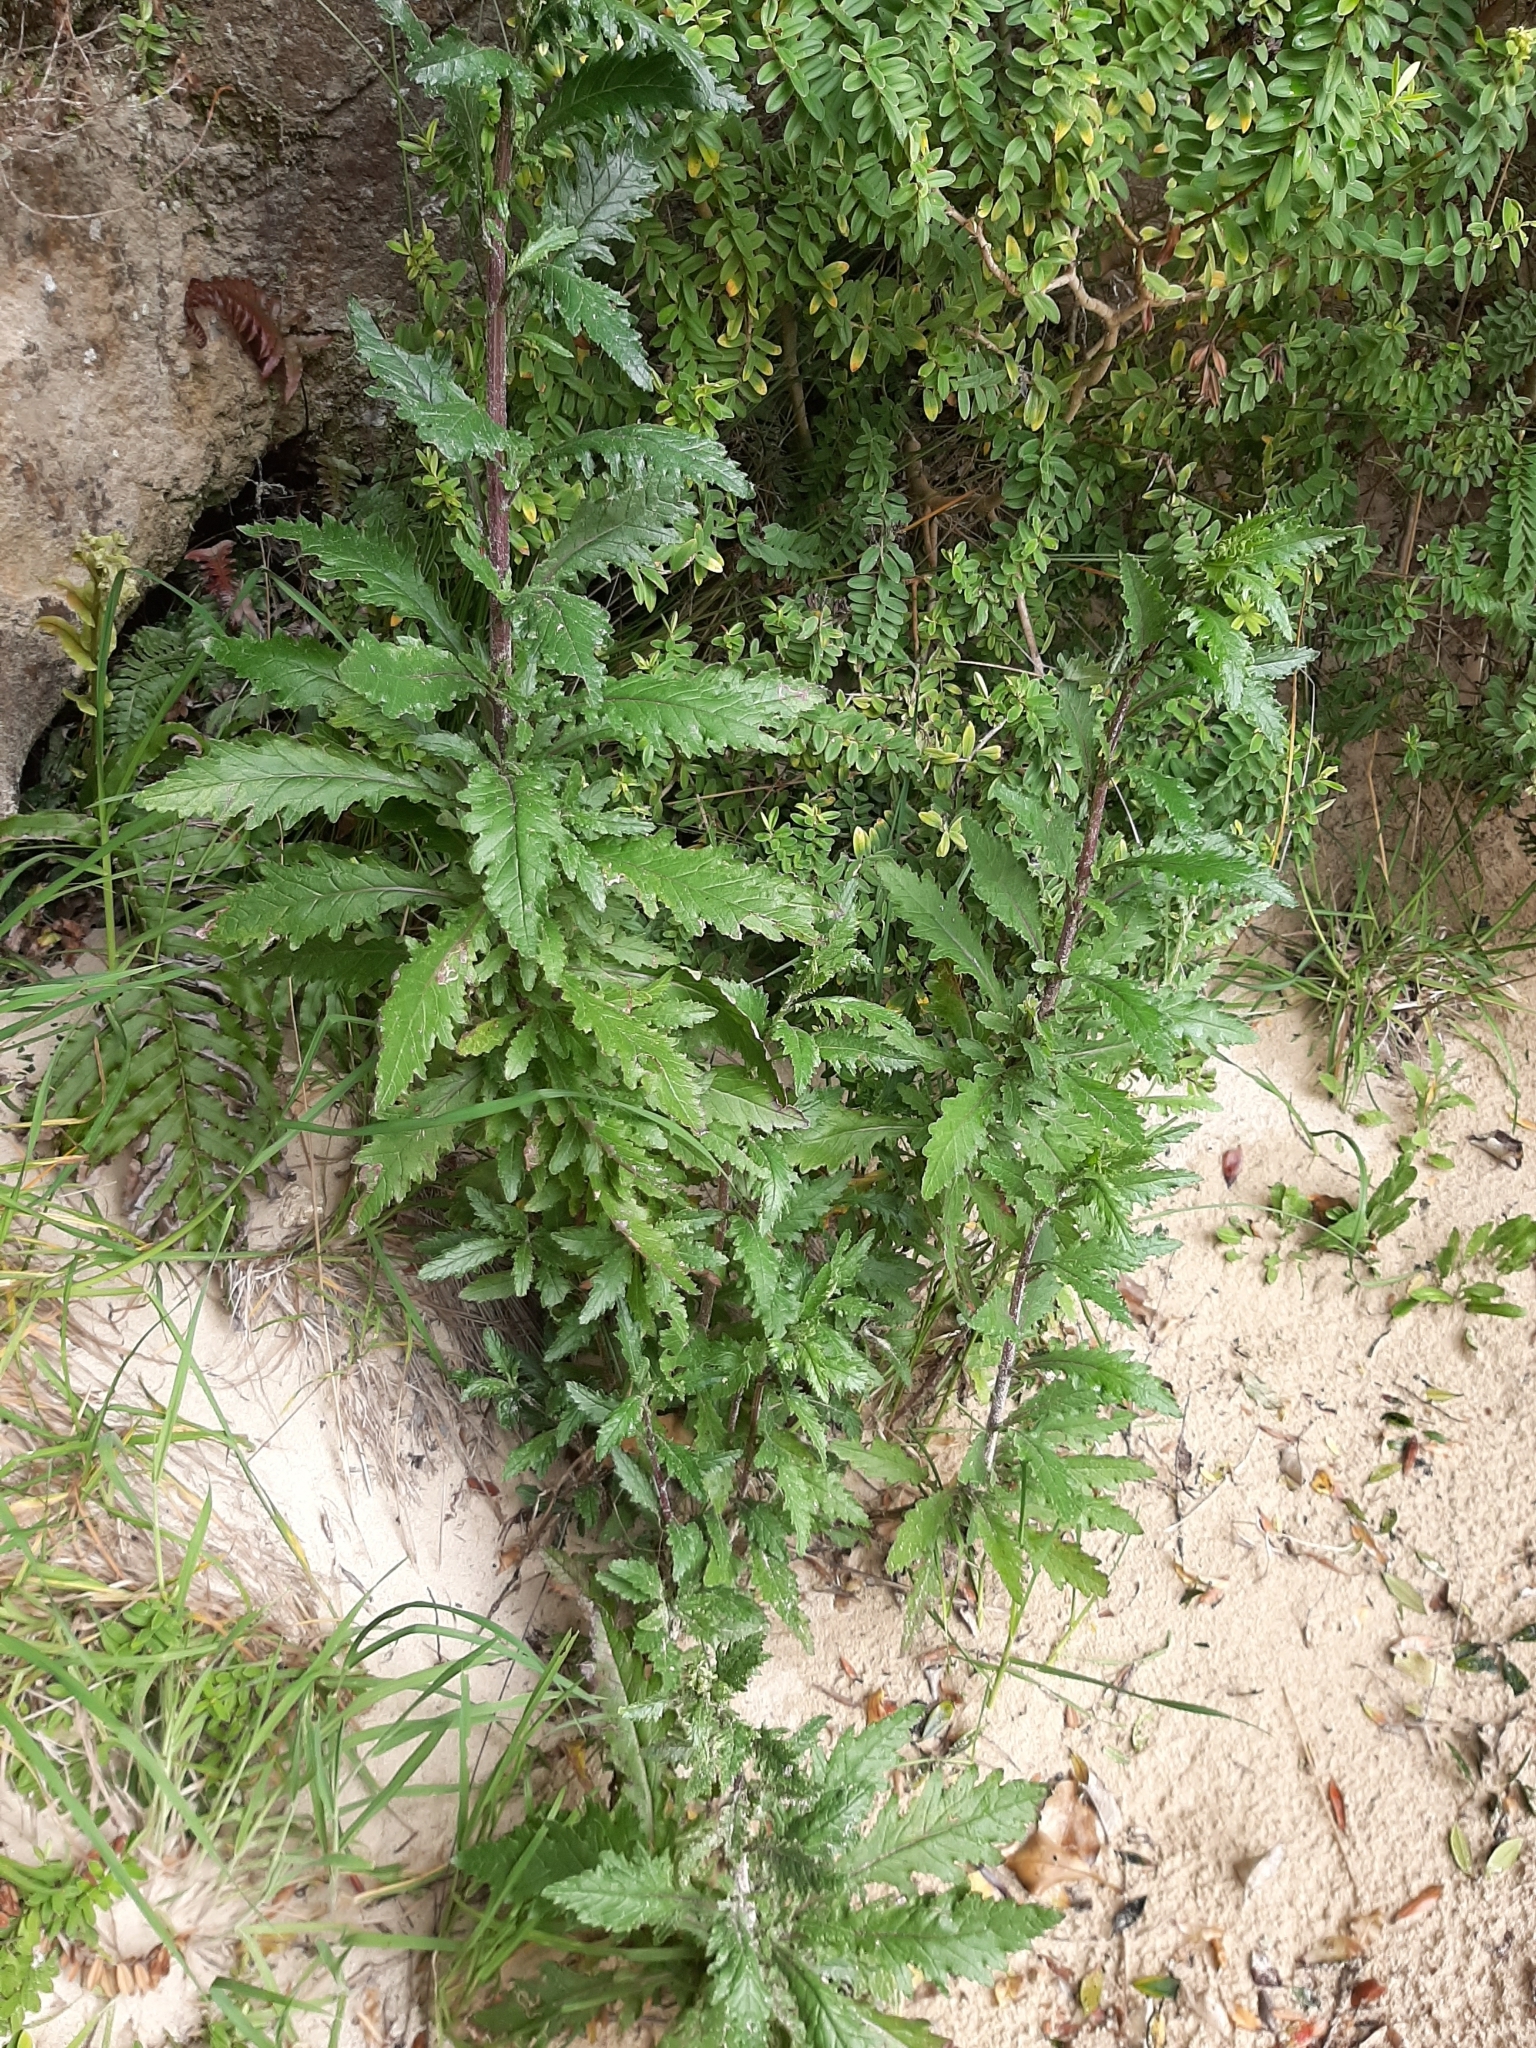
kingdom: Plantae
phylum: Tracheophyta
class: Magnoliopsida
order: Asterales
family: Asteraceae
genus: Senecio
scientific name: Senecio biserratus
